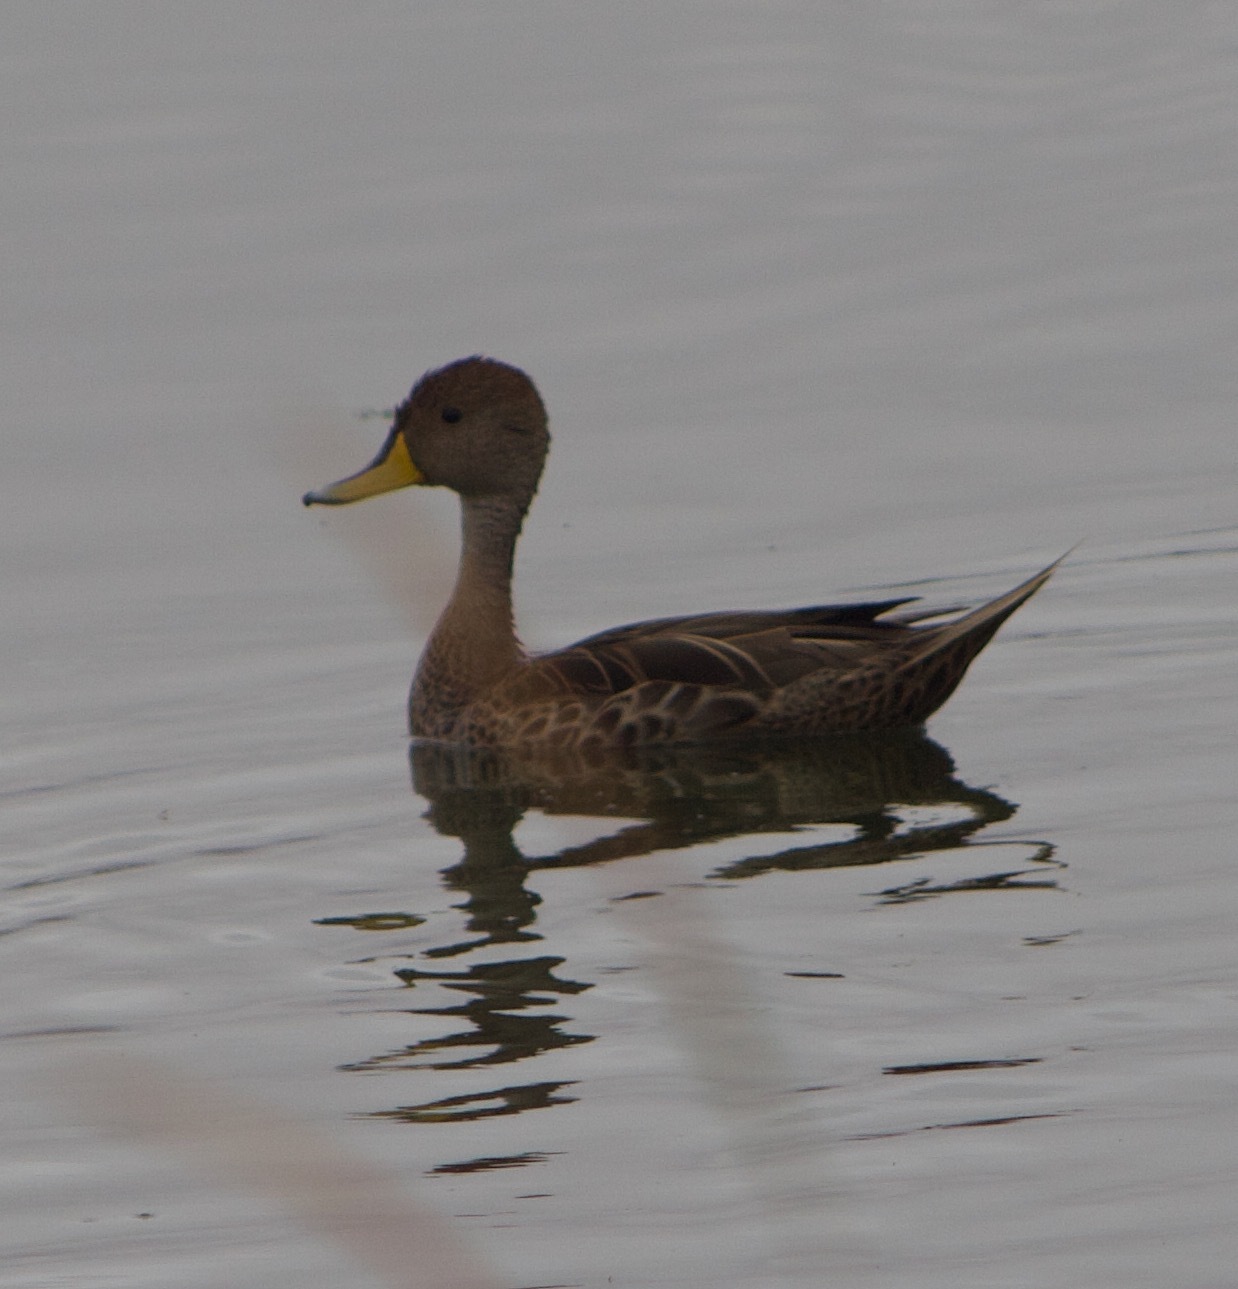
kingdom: Animalia
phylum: Chordata
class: Aves
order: Anseriformes
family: Anatidae
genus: Anas
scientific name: Anas georgica
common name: Yellow-billed pintail
